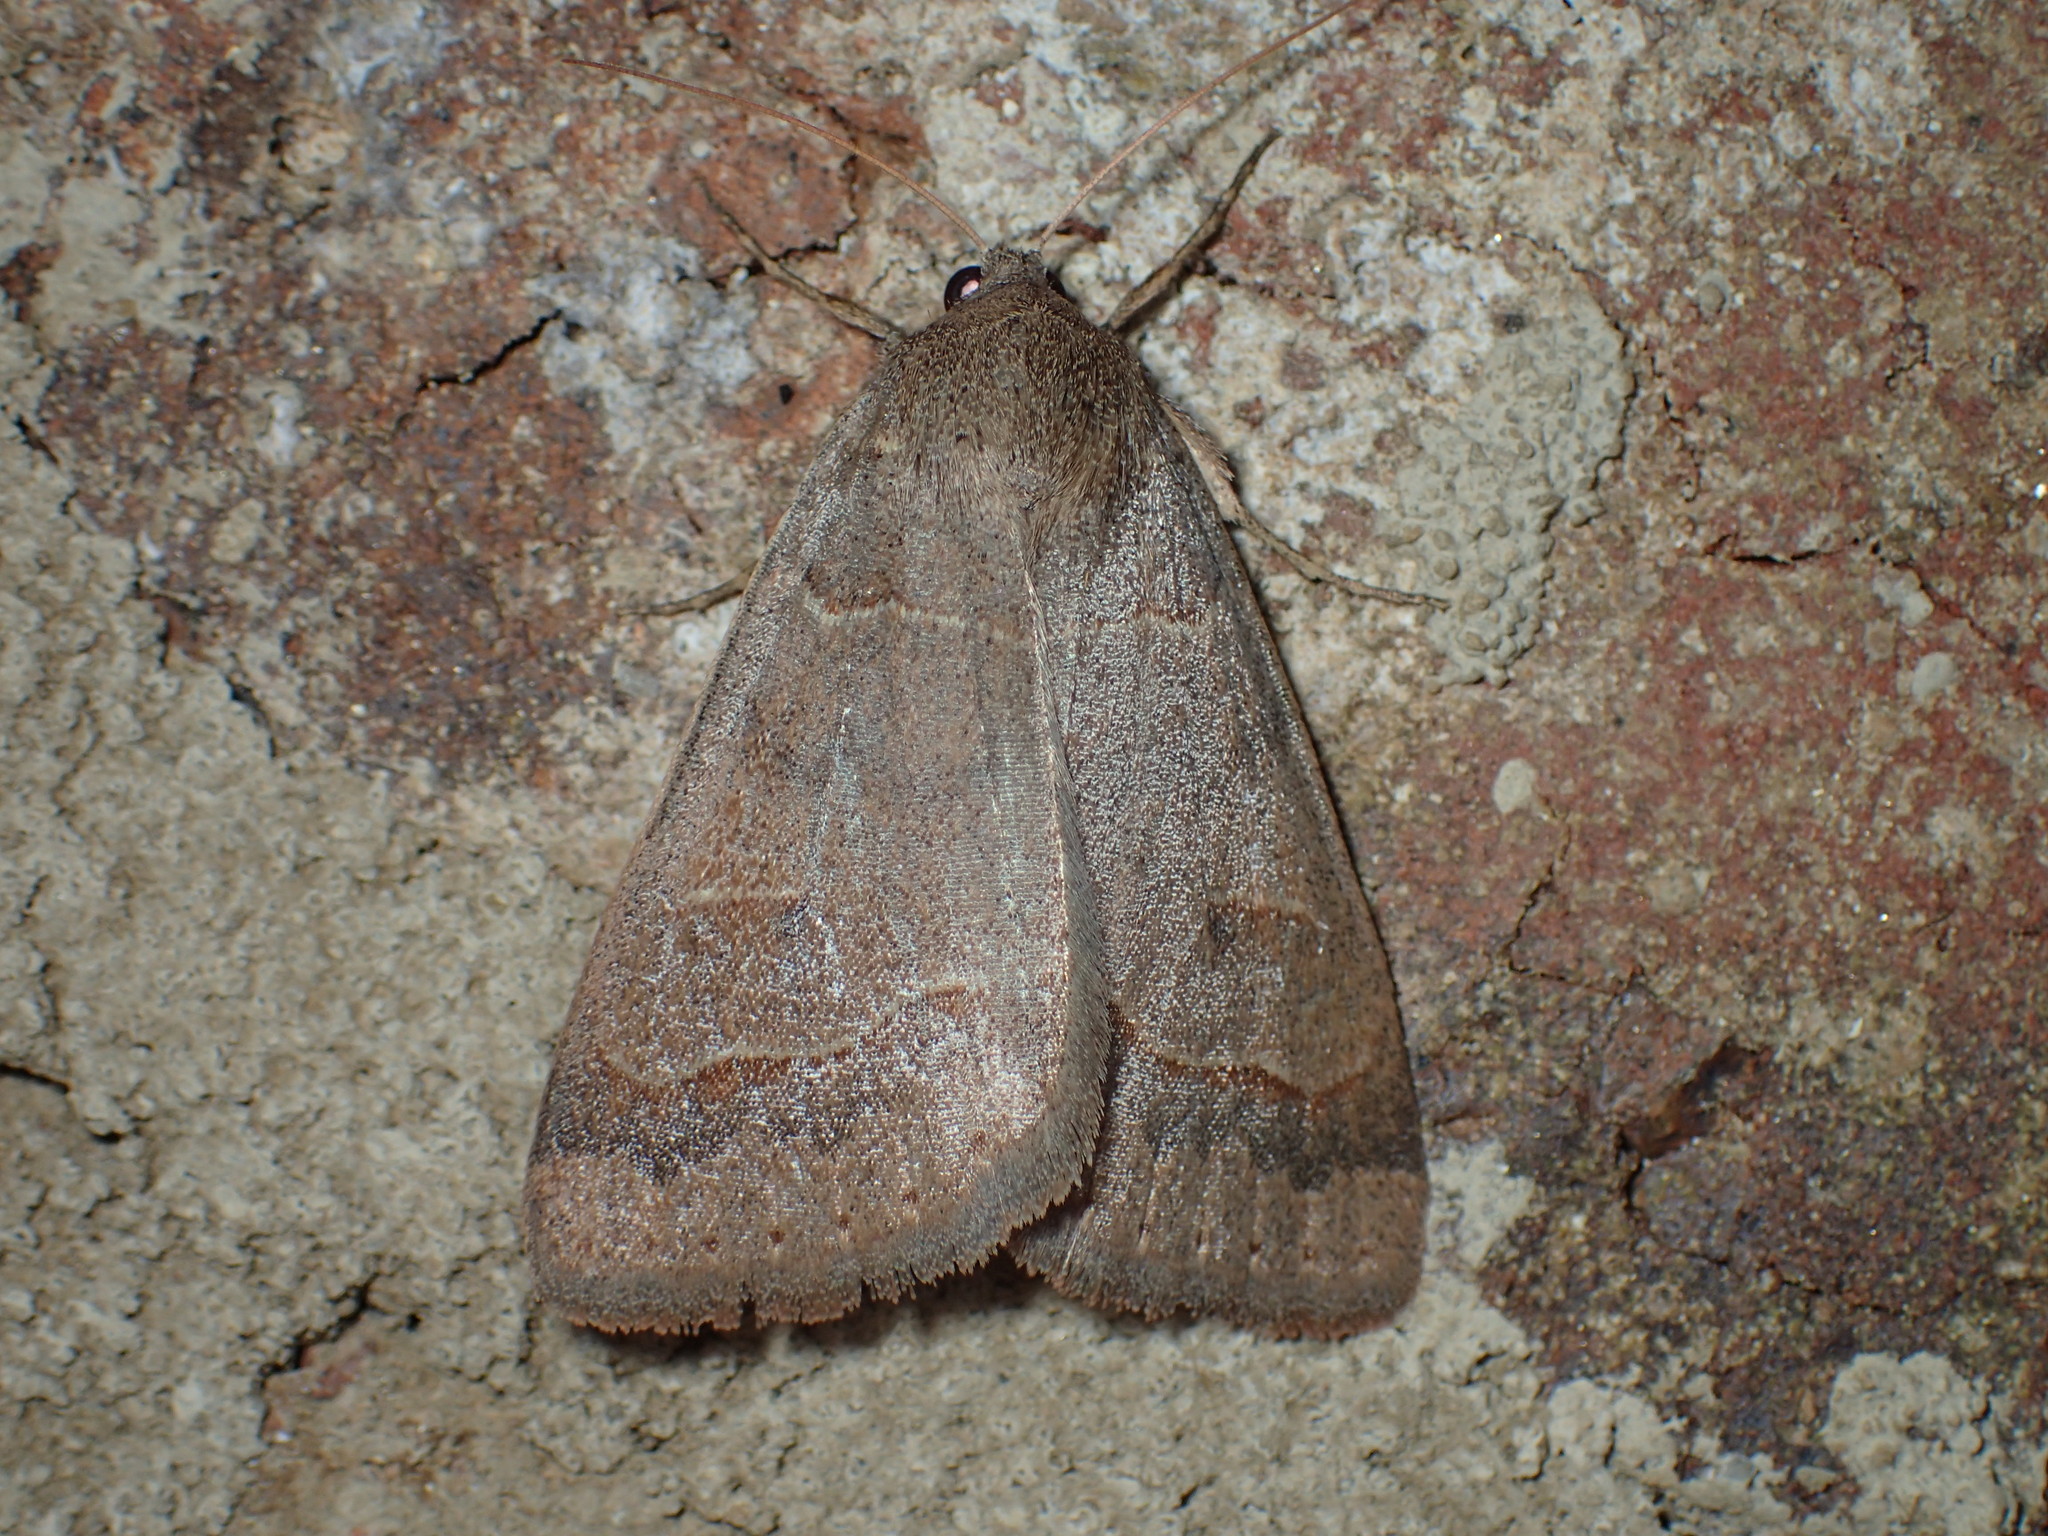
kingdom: Animalia
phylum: Arthropoda
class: Insecta
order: Lepidoptera
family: Erebidae
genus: Phoberia
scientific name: Phoberia atomaris
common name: Common oak moth
